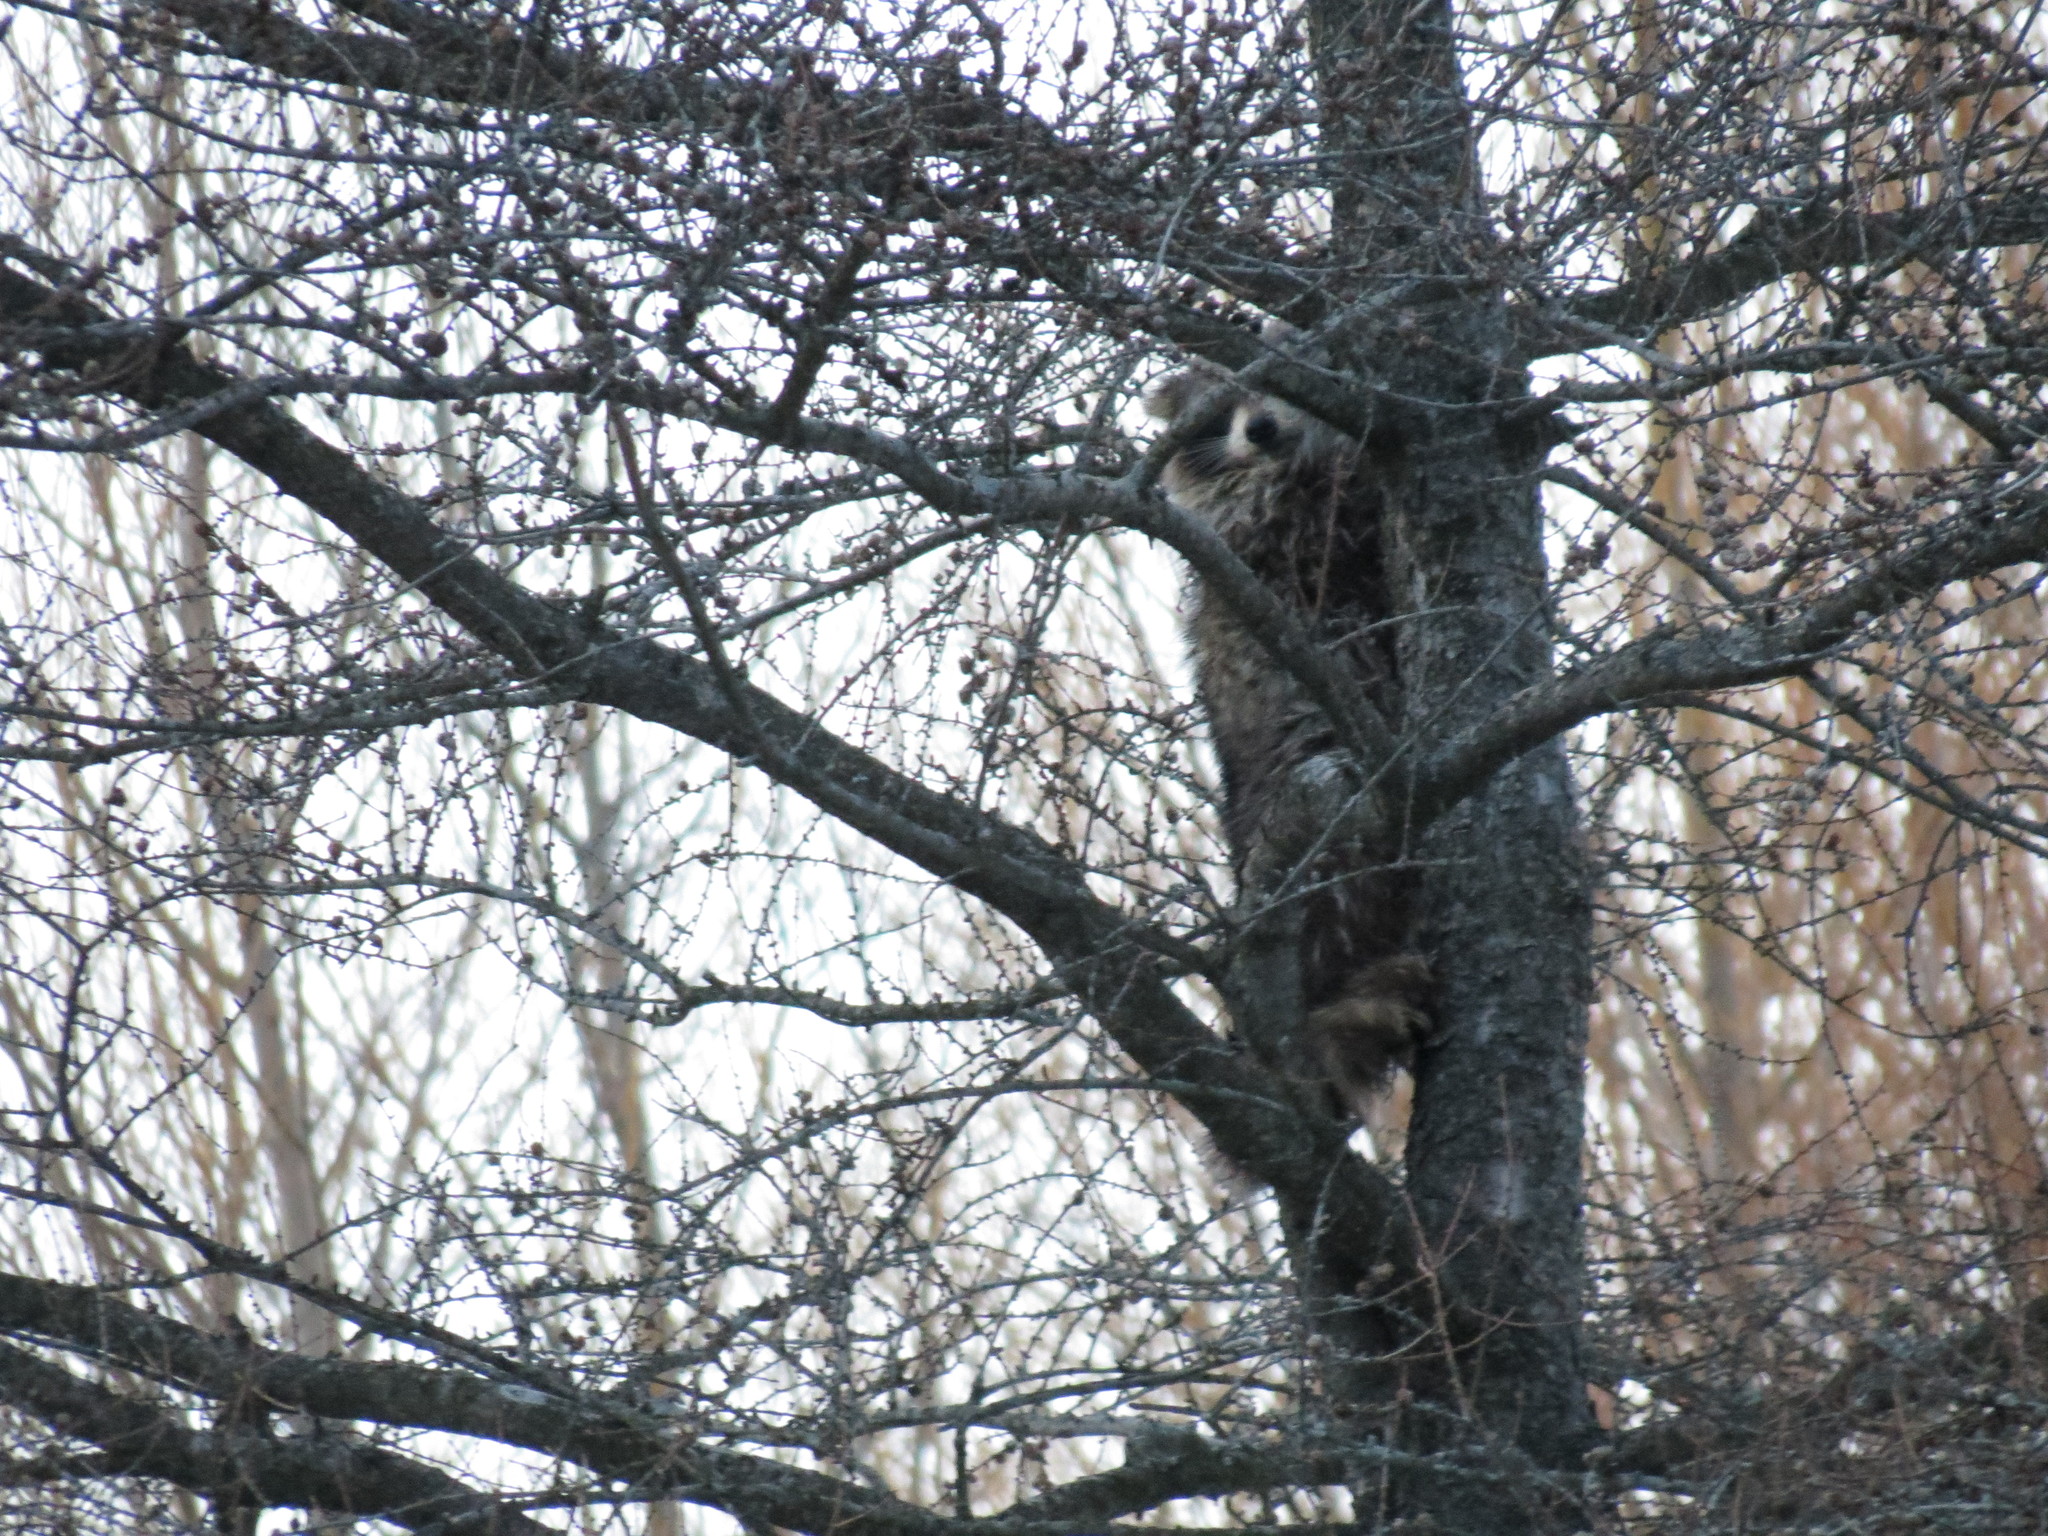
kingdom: Animalia
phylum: Chordata
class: Mammalia
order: Carnivora
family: Procyonidae
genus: Procyon
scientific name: Procyon lotor
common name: Raccoon
